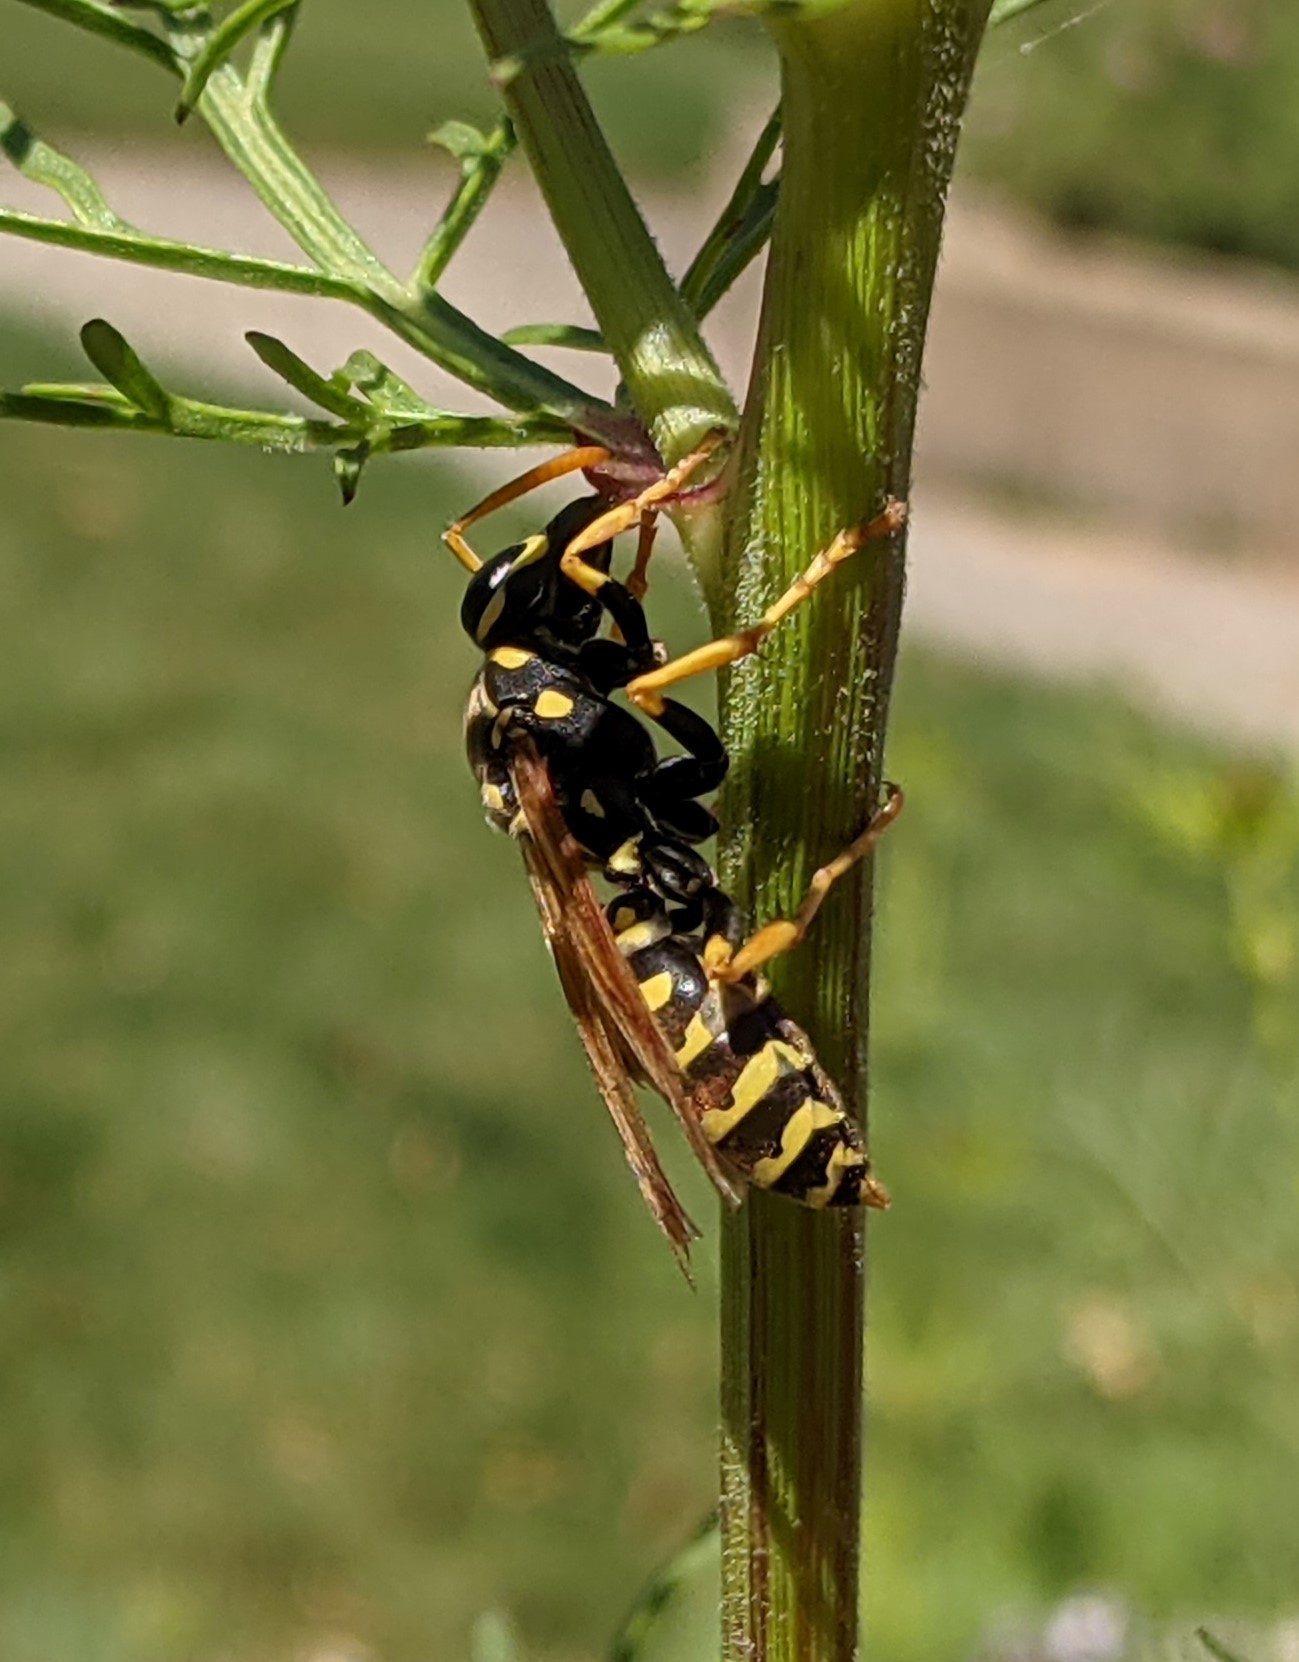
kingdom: Animalia
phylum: Arthropoda
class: Insecta
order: Hymenoptera
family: Eumenidae
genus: Polistes
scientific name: Polistes dominula
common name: Paper wasp
